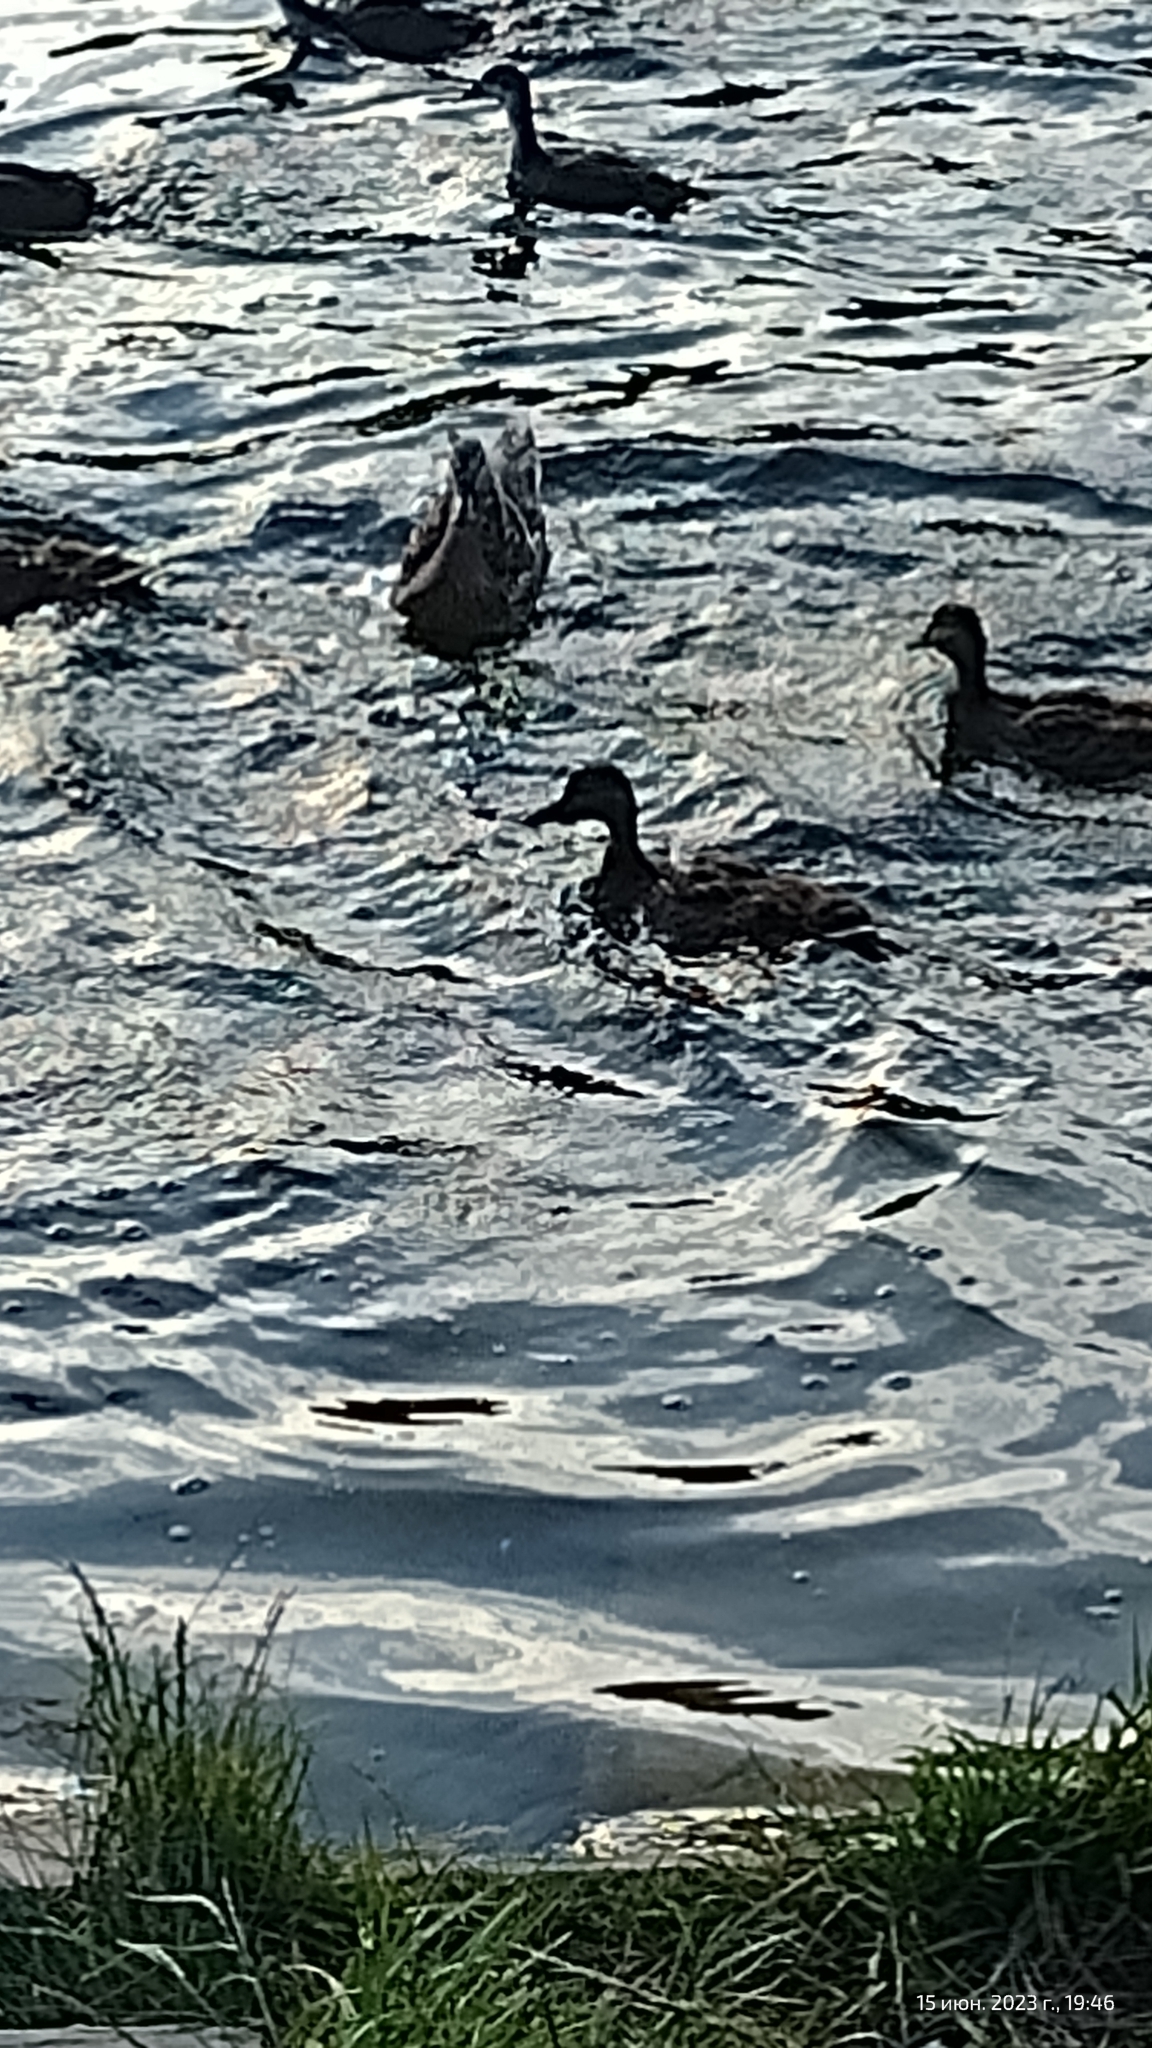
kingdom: Animalia
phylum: Chordata
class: Aves
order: Anseriformes
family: Anatidae
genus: Anas
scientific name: Anas platyrhynchos
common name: Mallard
